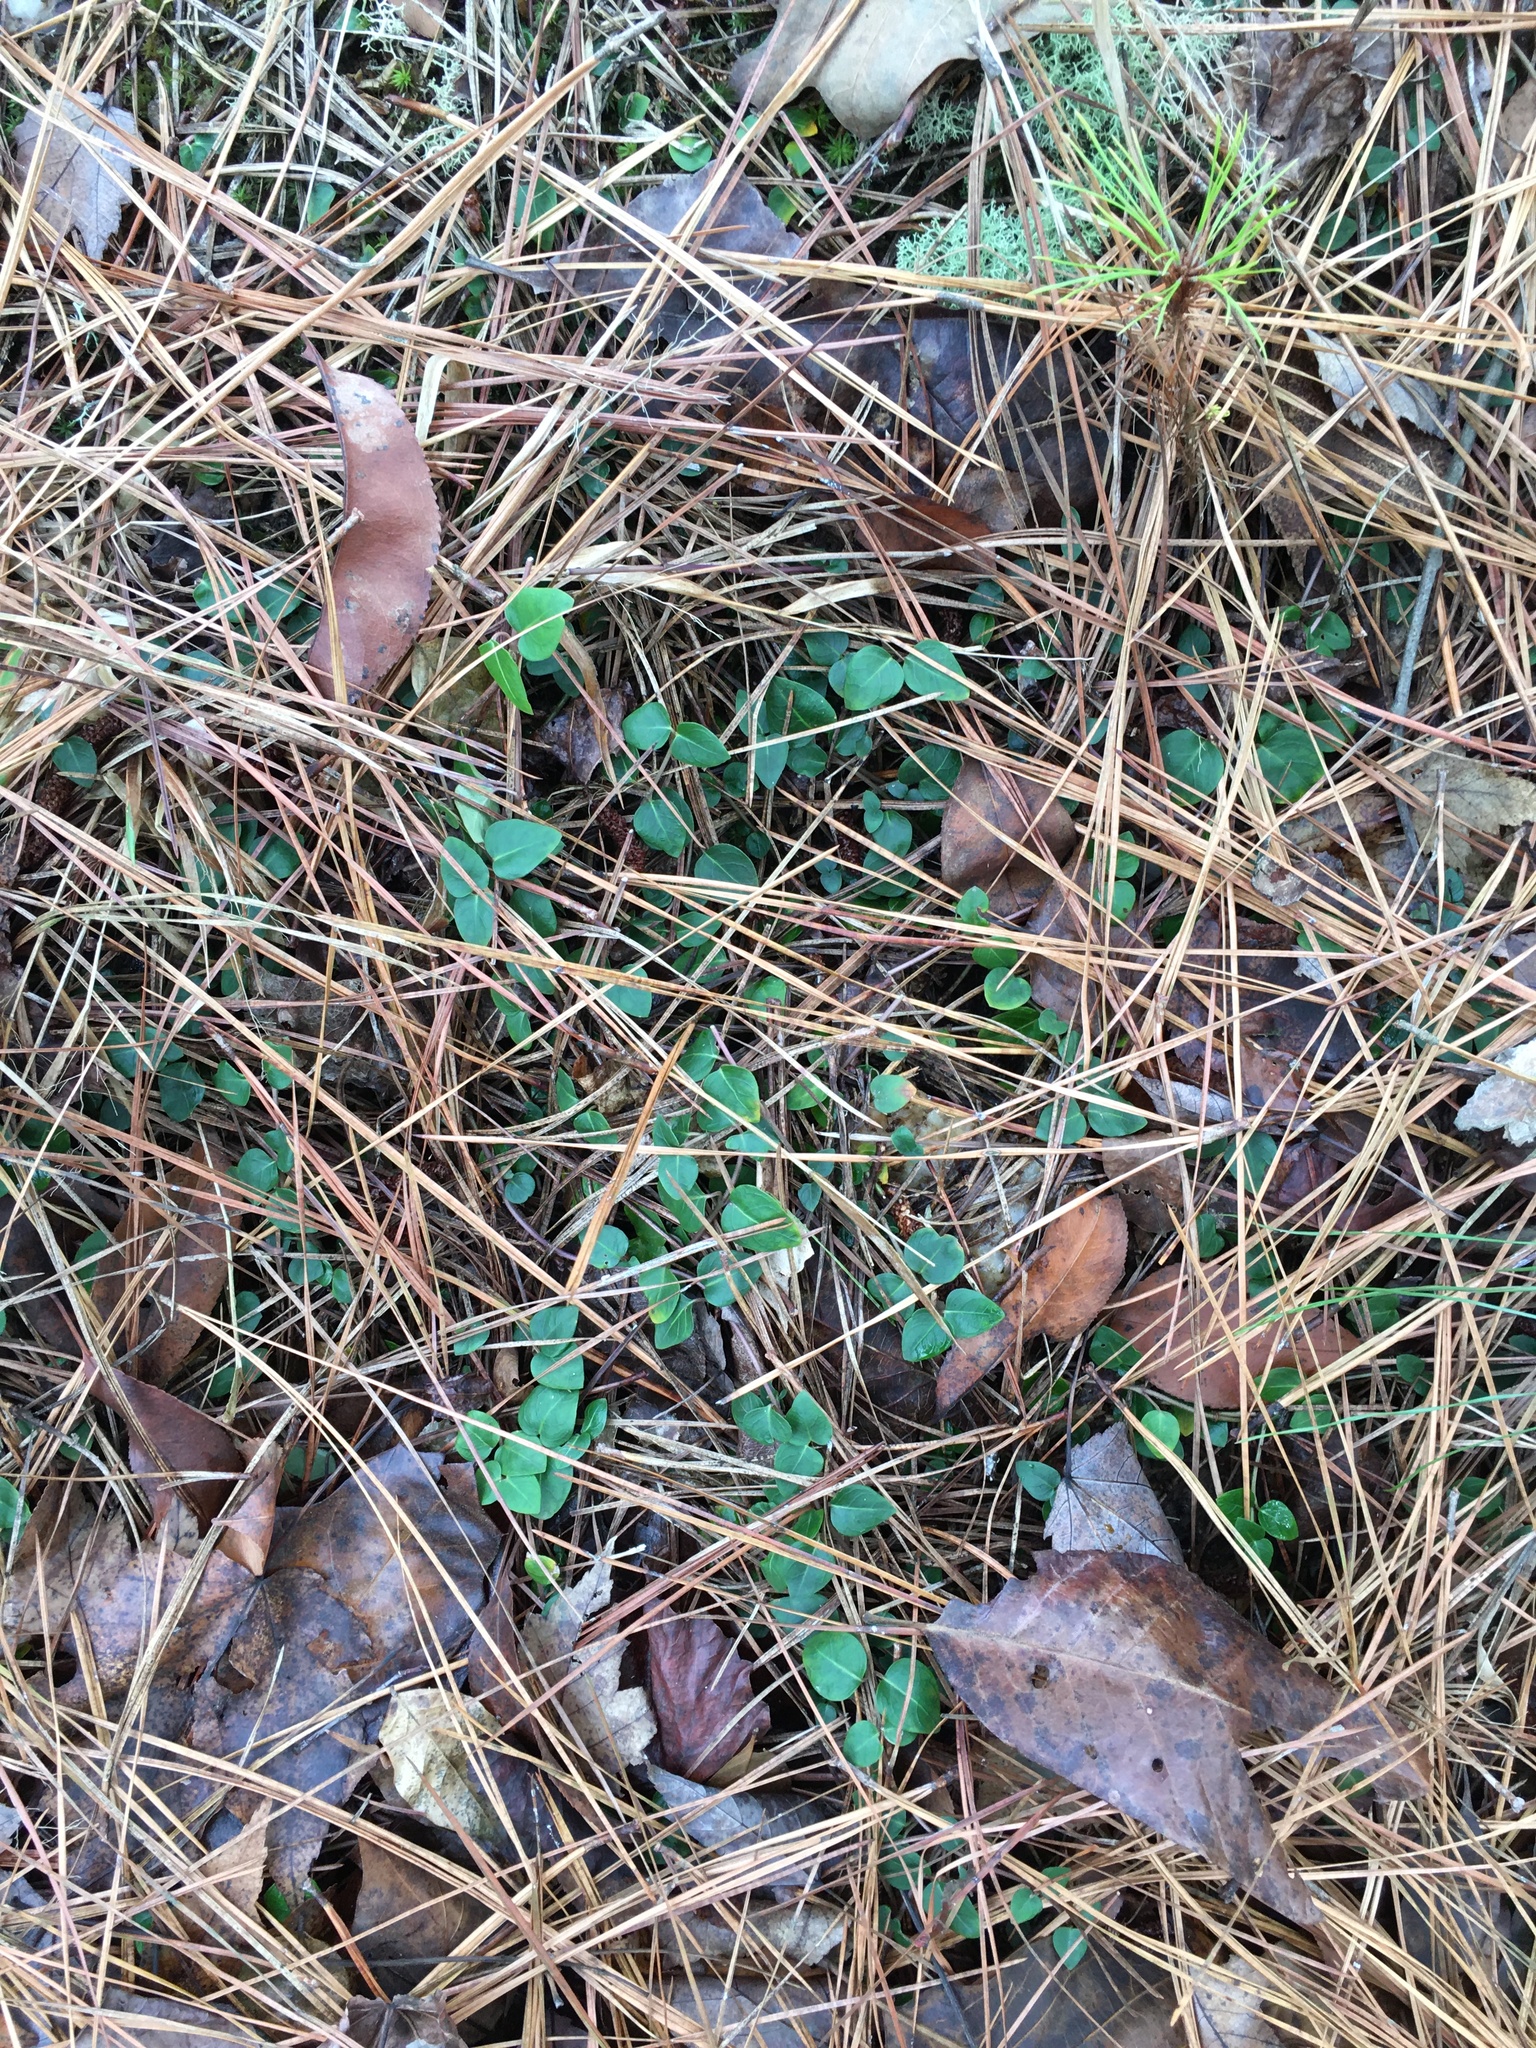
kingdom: Plantae
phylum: Tracheophyta
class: Magnoliopsida
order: Gentianales
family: Rubiaceae
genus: Mitchella
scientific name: Mitchella repens
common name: Partridge-berry
